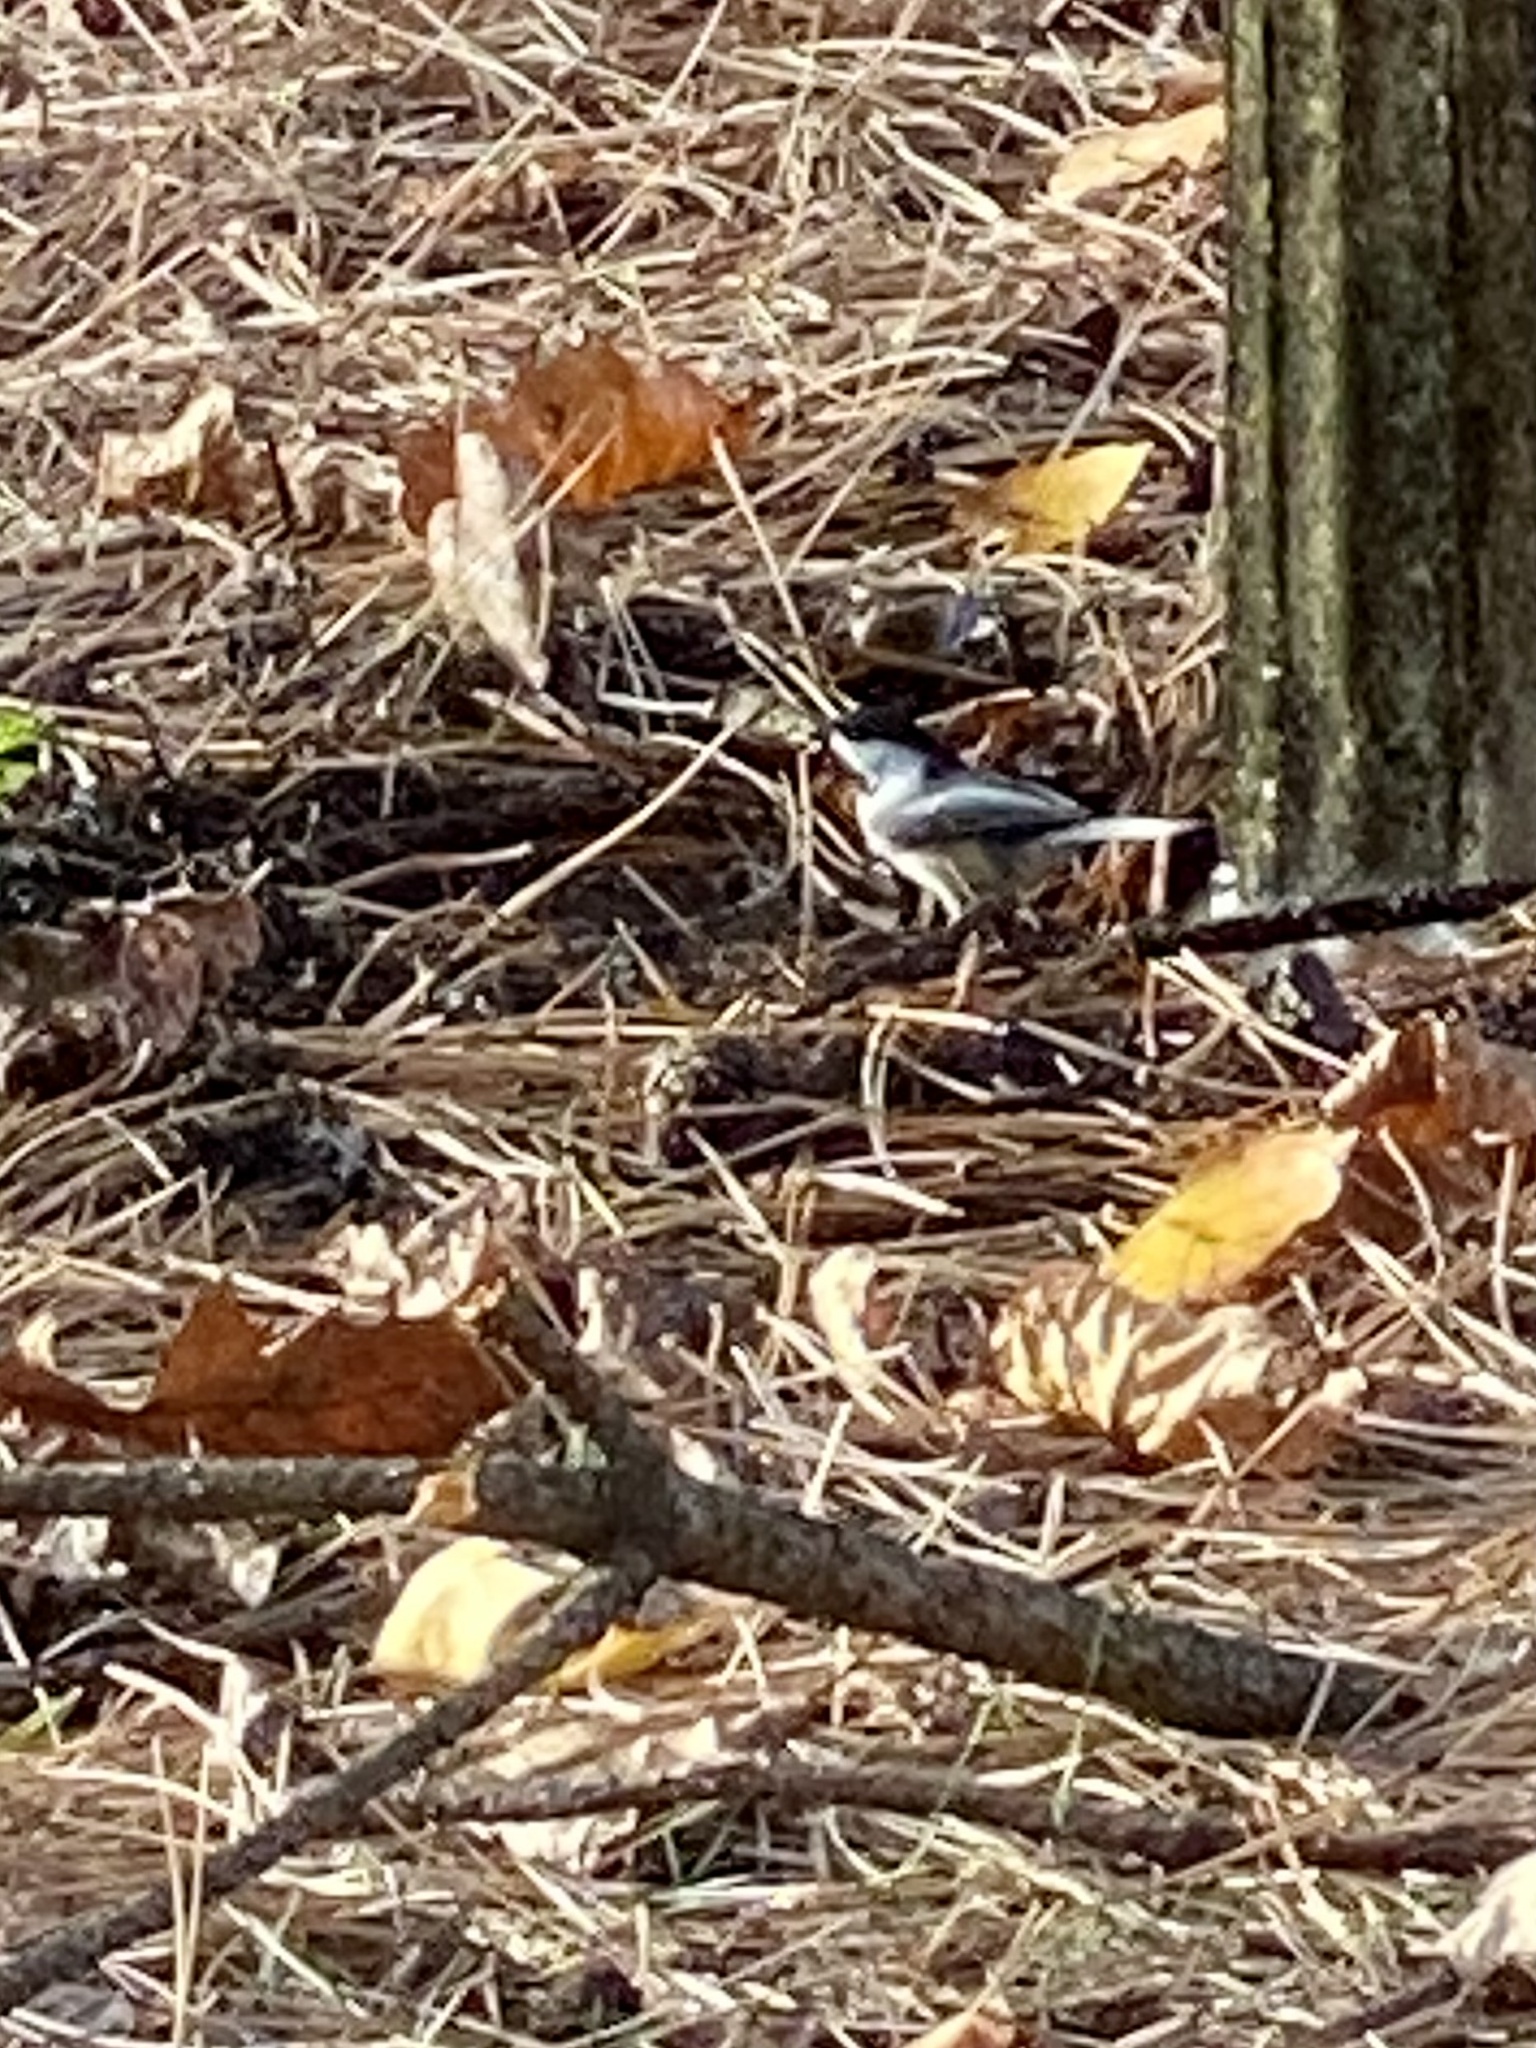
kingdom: Animalia
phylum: Chordata
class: Aves
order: Passeriformes
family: Paridae
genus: Poecile
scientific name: Poecile atricapillus
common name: Black-capped chickadee
